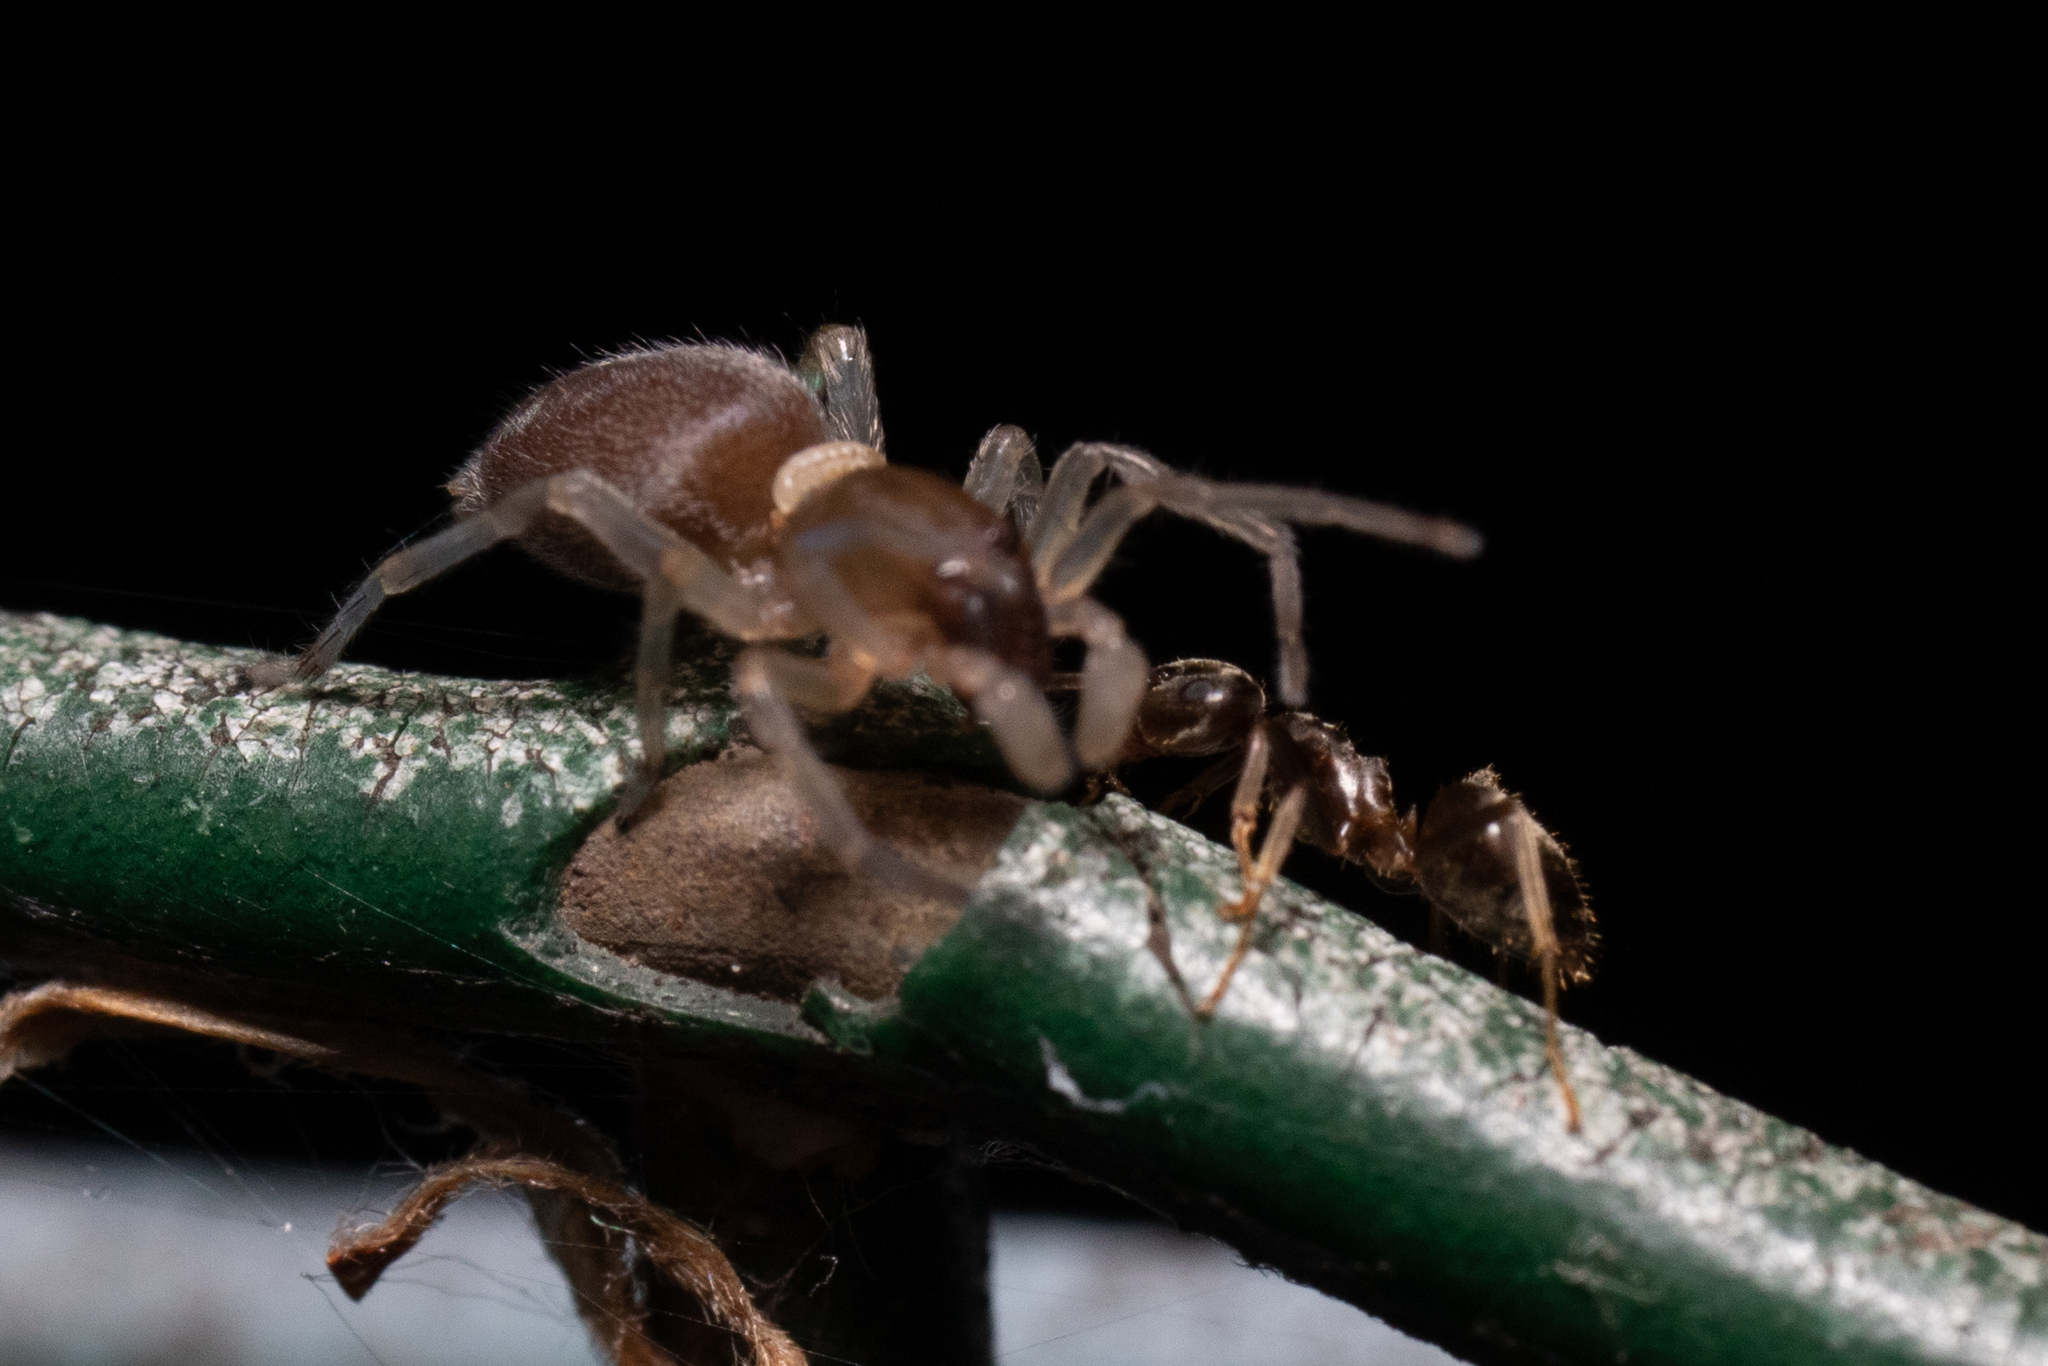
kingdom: Animalia
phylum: Arthropoda
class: Arachnida
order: Araneae
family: Clubionidae
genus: Clubiona
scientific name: Clubiona
